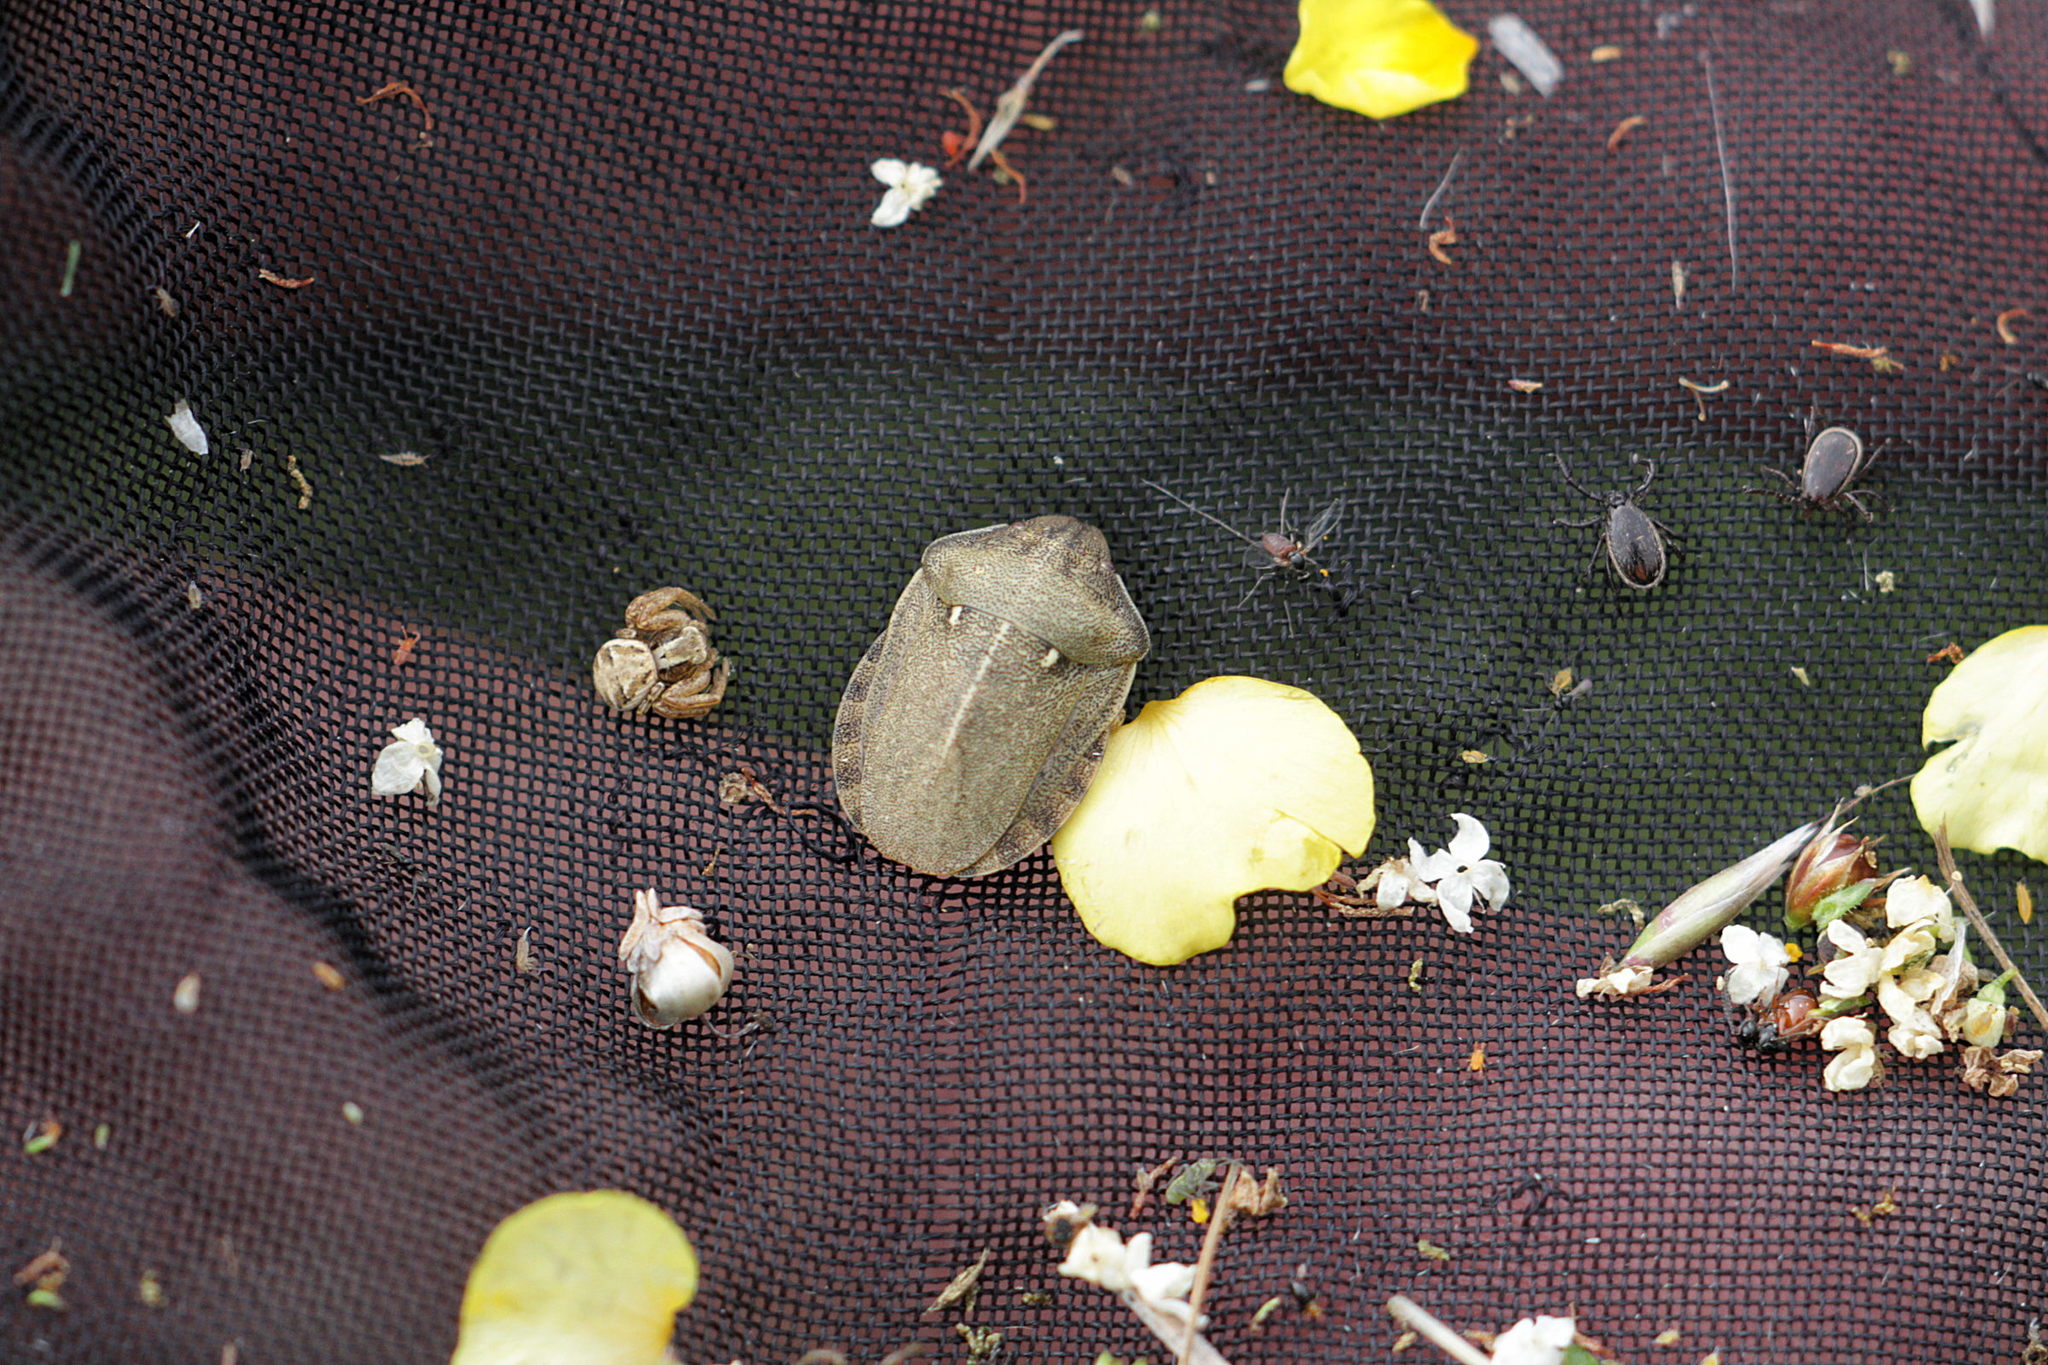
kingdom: Animalia
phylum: Arthropoda
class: Insecta
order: Hemiptera
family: Scutelleridae
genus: Eurygaster
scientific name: Eurygaster testudinaria
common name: Tortoise bug
